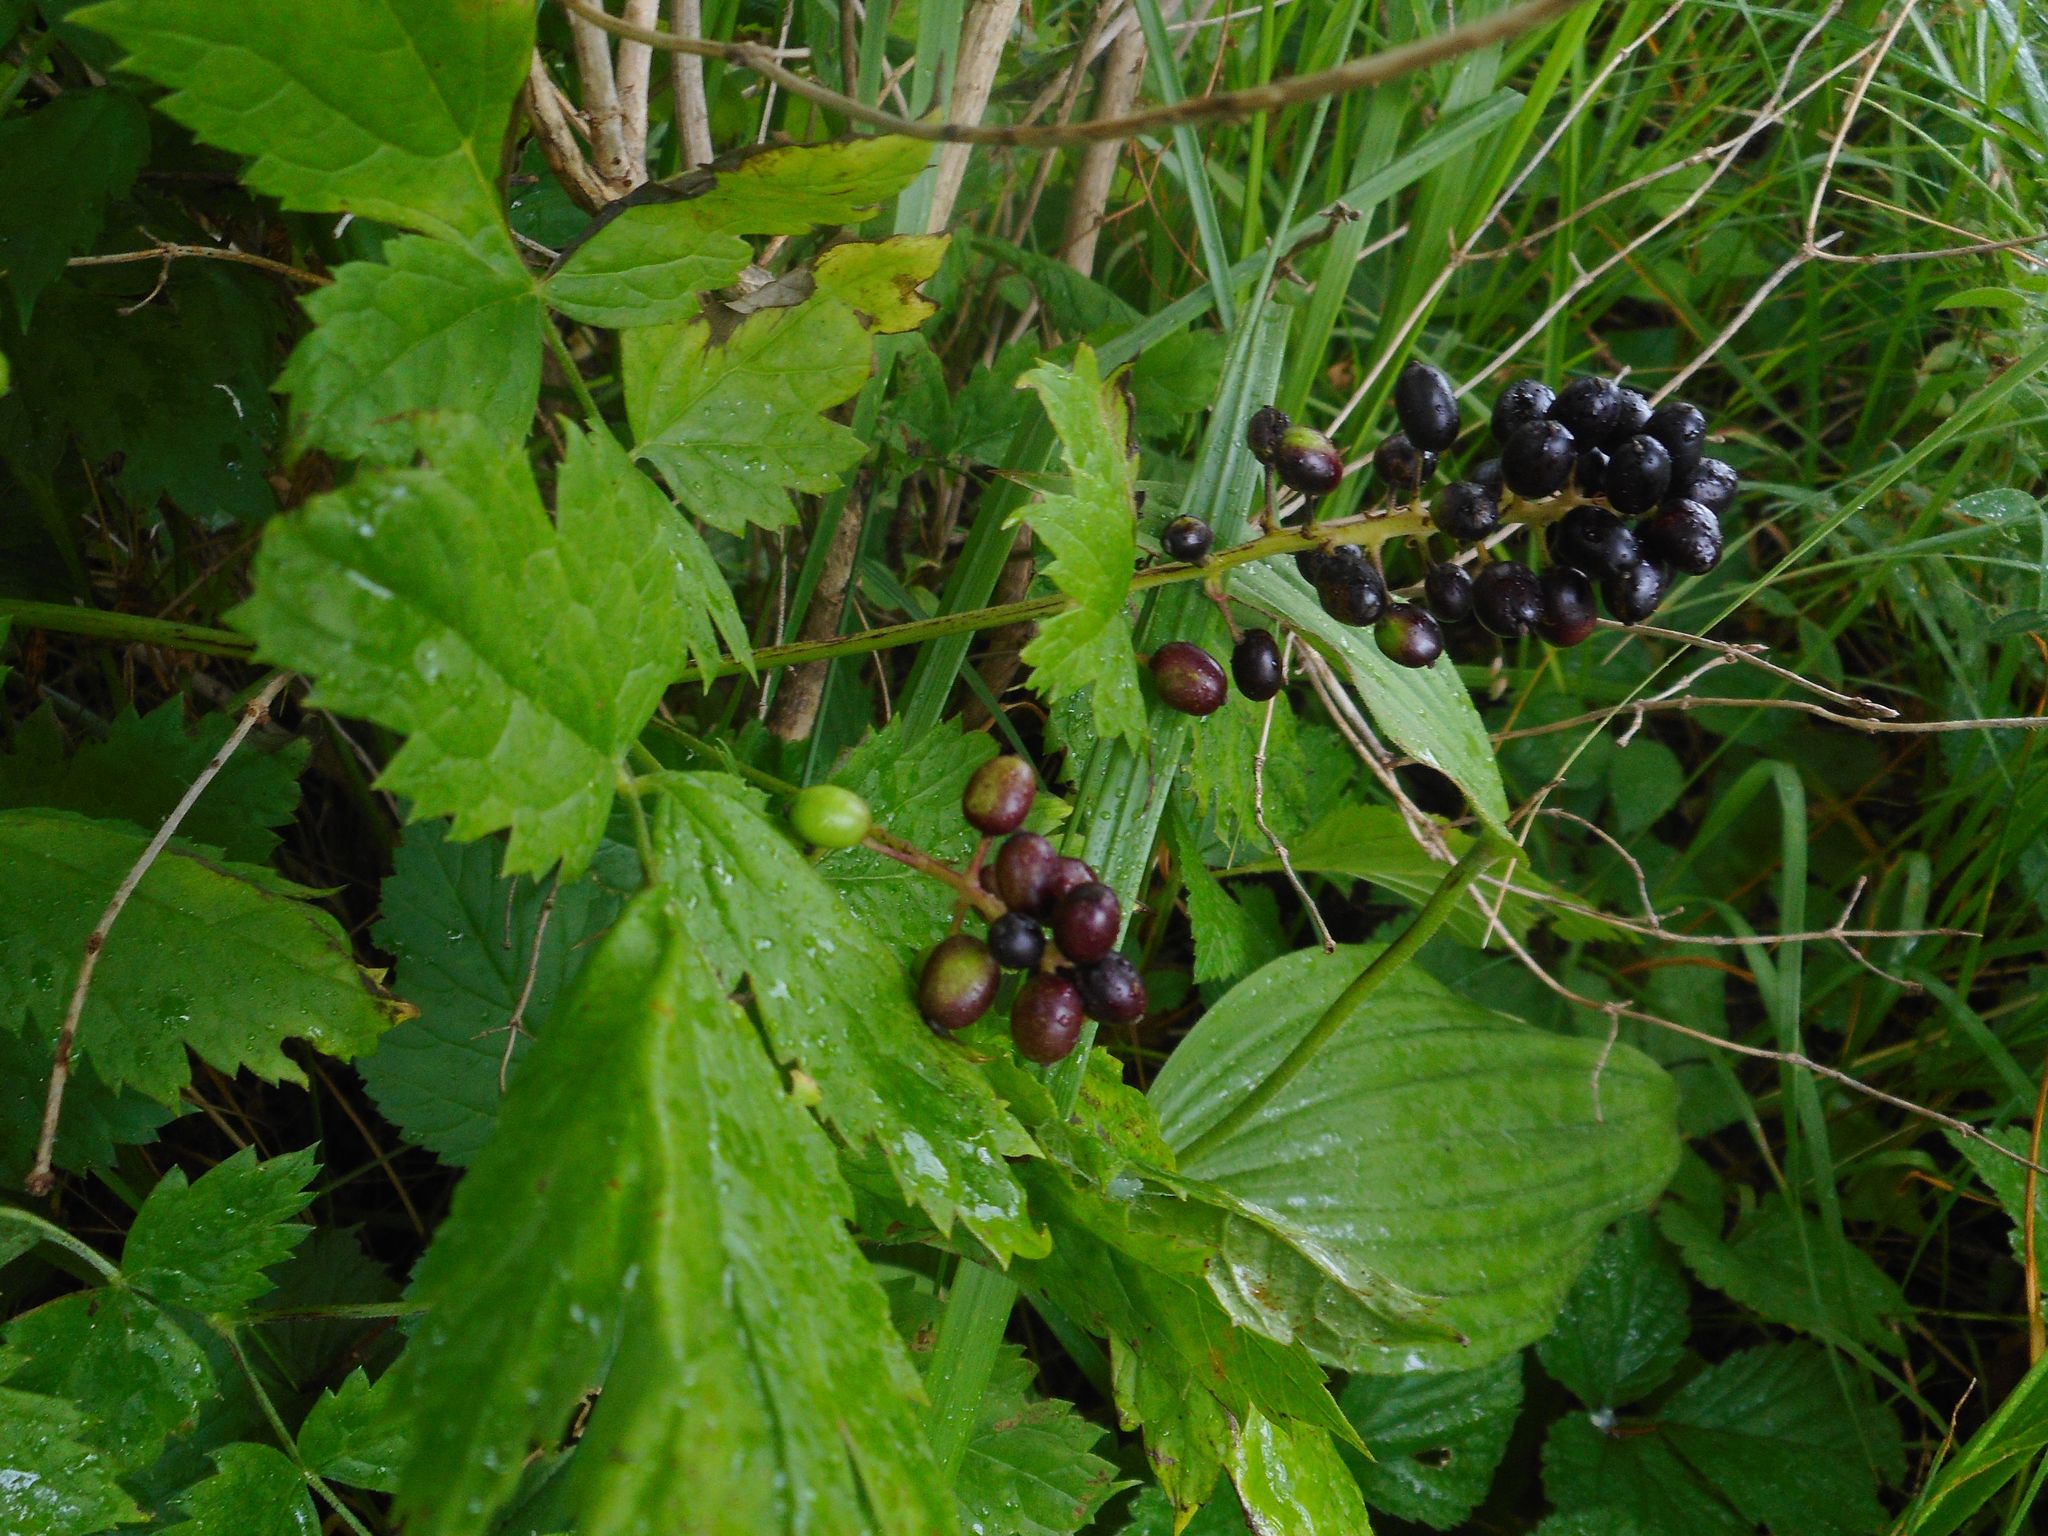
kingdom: Plantae
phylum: Tracheophyta
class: Magnoliopsida
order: Ranunculales
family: Ranunculaceae
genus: Actaea
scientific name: Actaea spicata
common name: Baneberry
